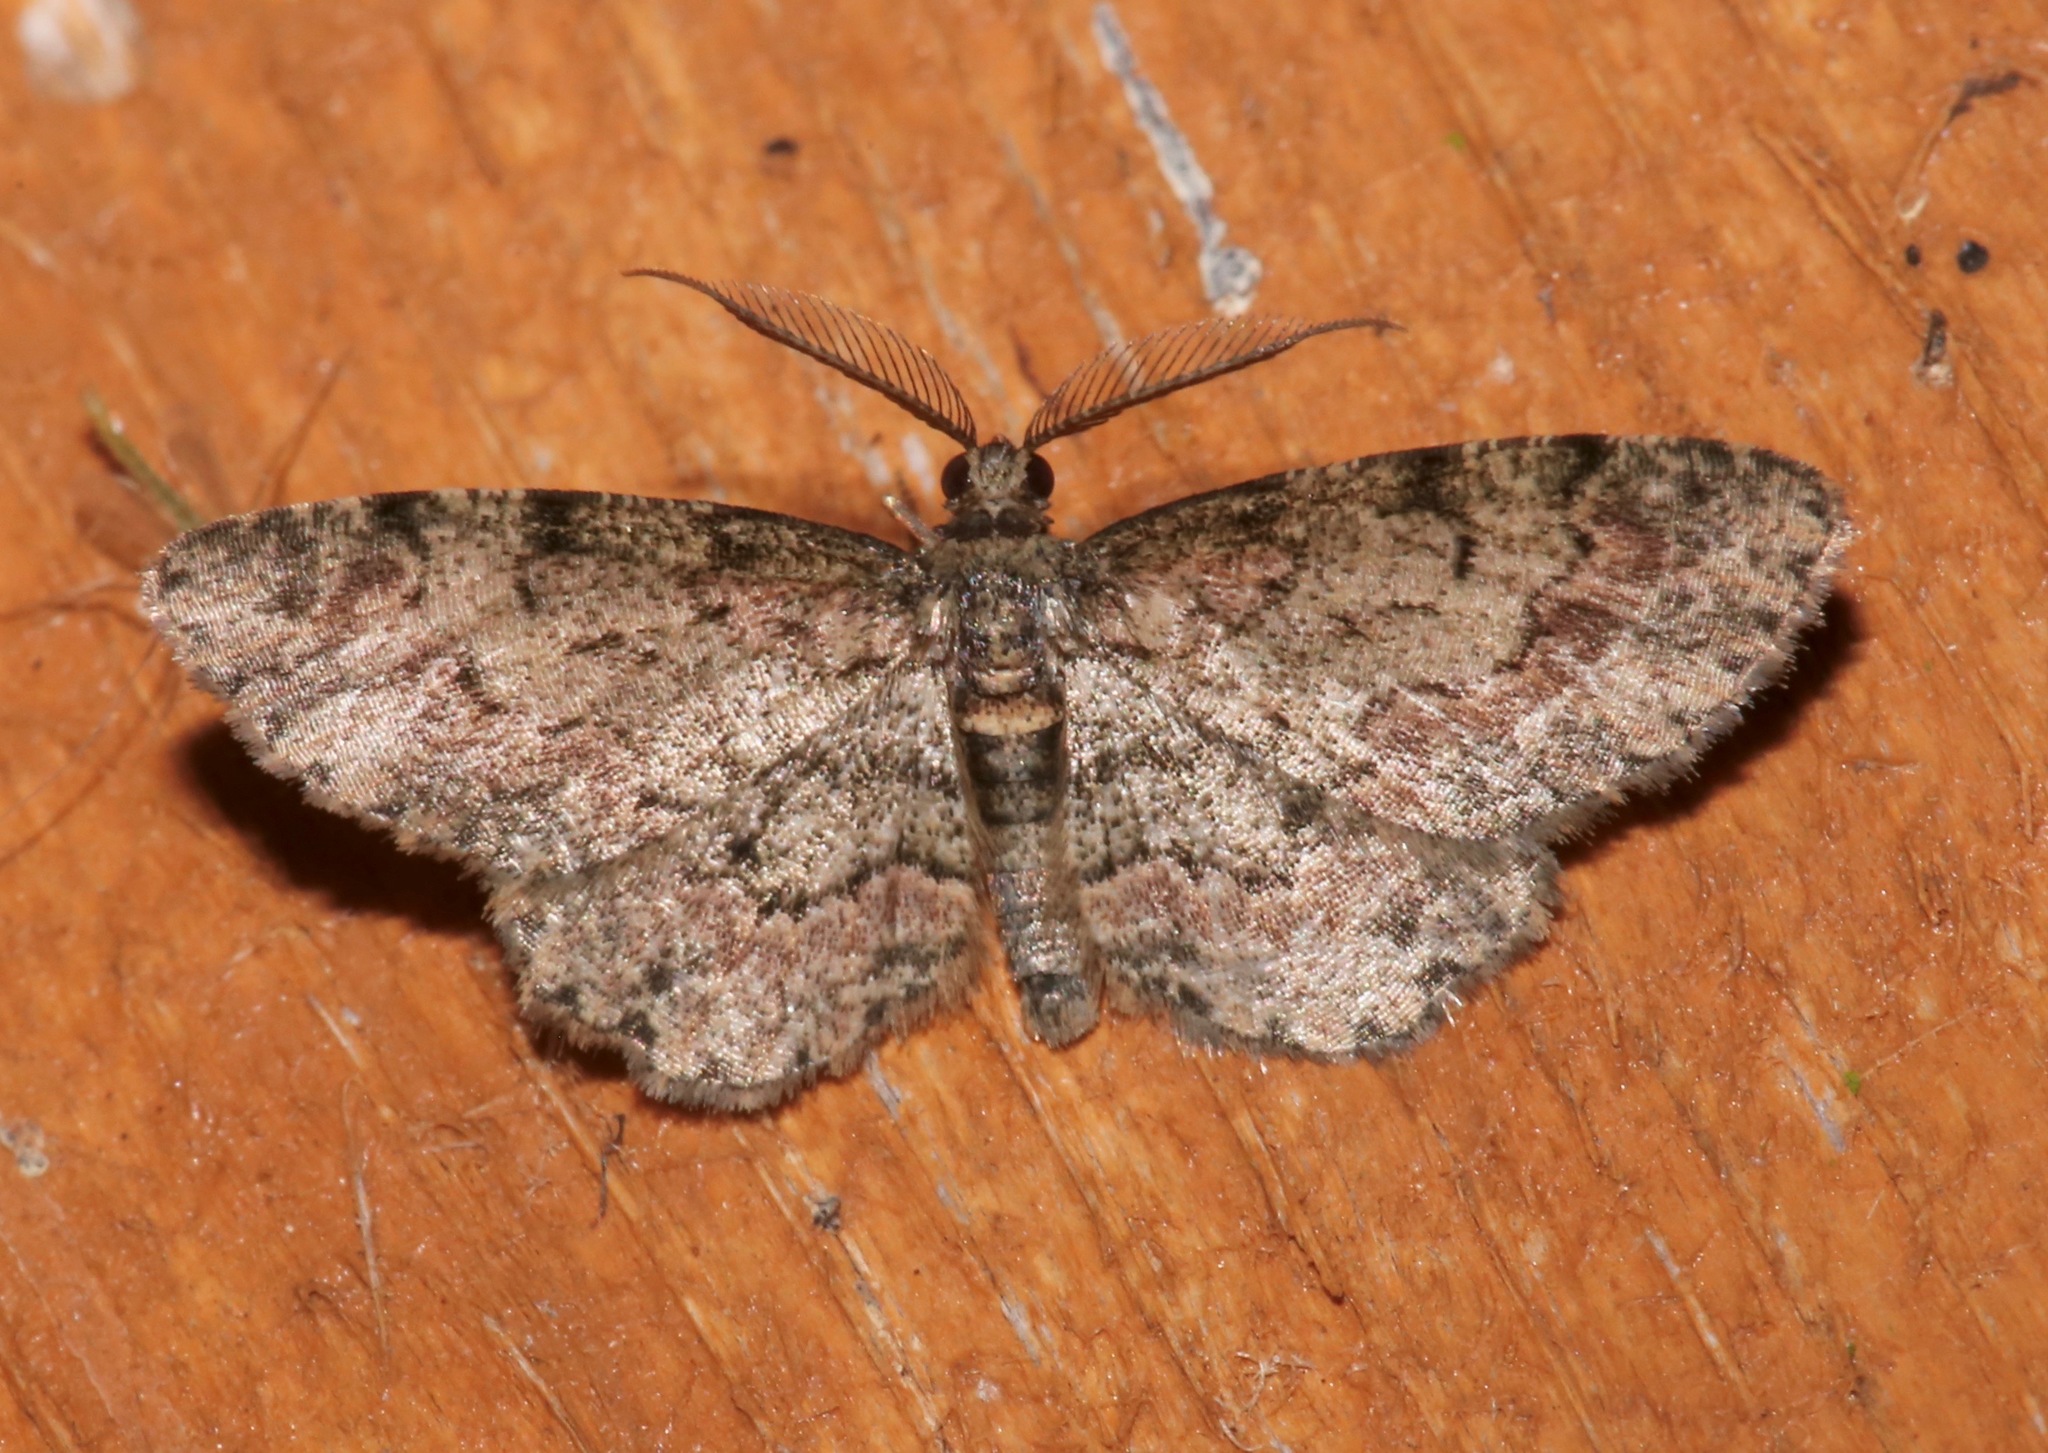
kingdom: Animalia
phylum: Arthropoda
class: Insecta
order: Lepidoptera
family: Geometridae
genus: Glenoides
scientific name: Glenoides texanaria
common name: Texas gray
